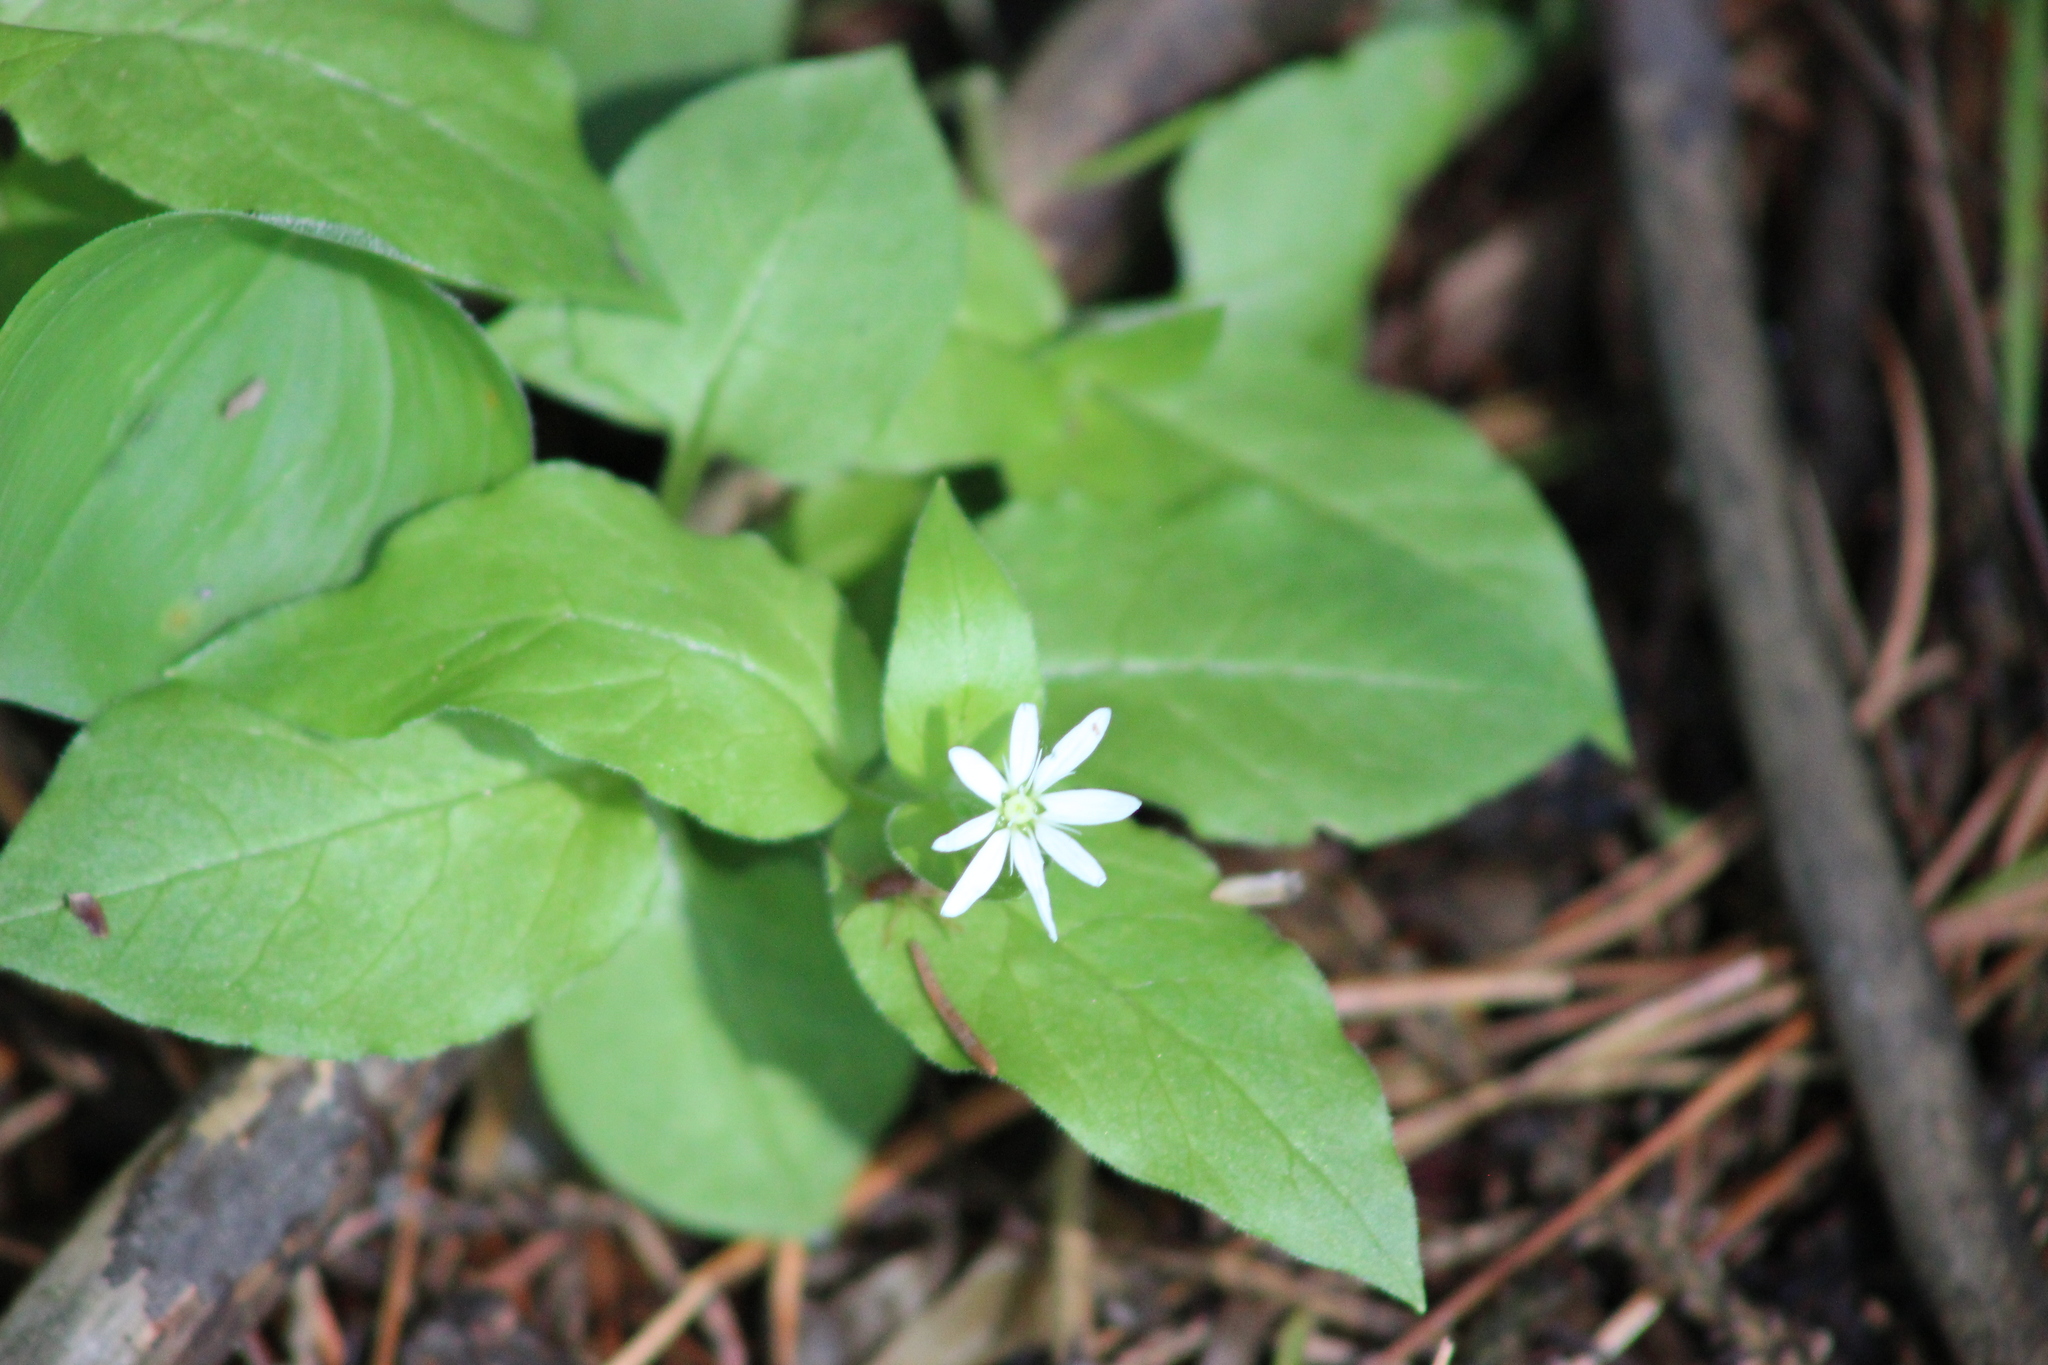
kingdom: Plantae
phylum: Tracheophyta
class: Magnoliopsida
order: Caryophyllales
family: Caryophyllaceae
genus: Stellaria
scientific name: Stellaria bungeana
